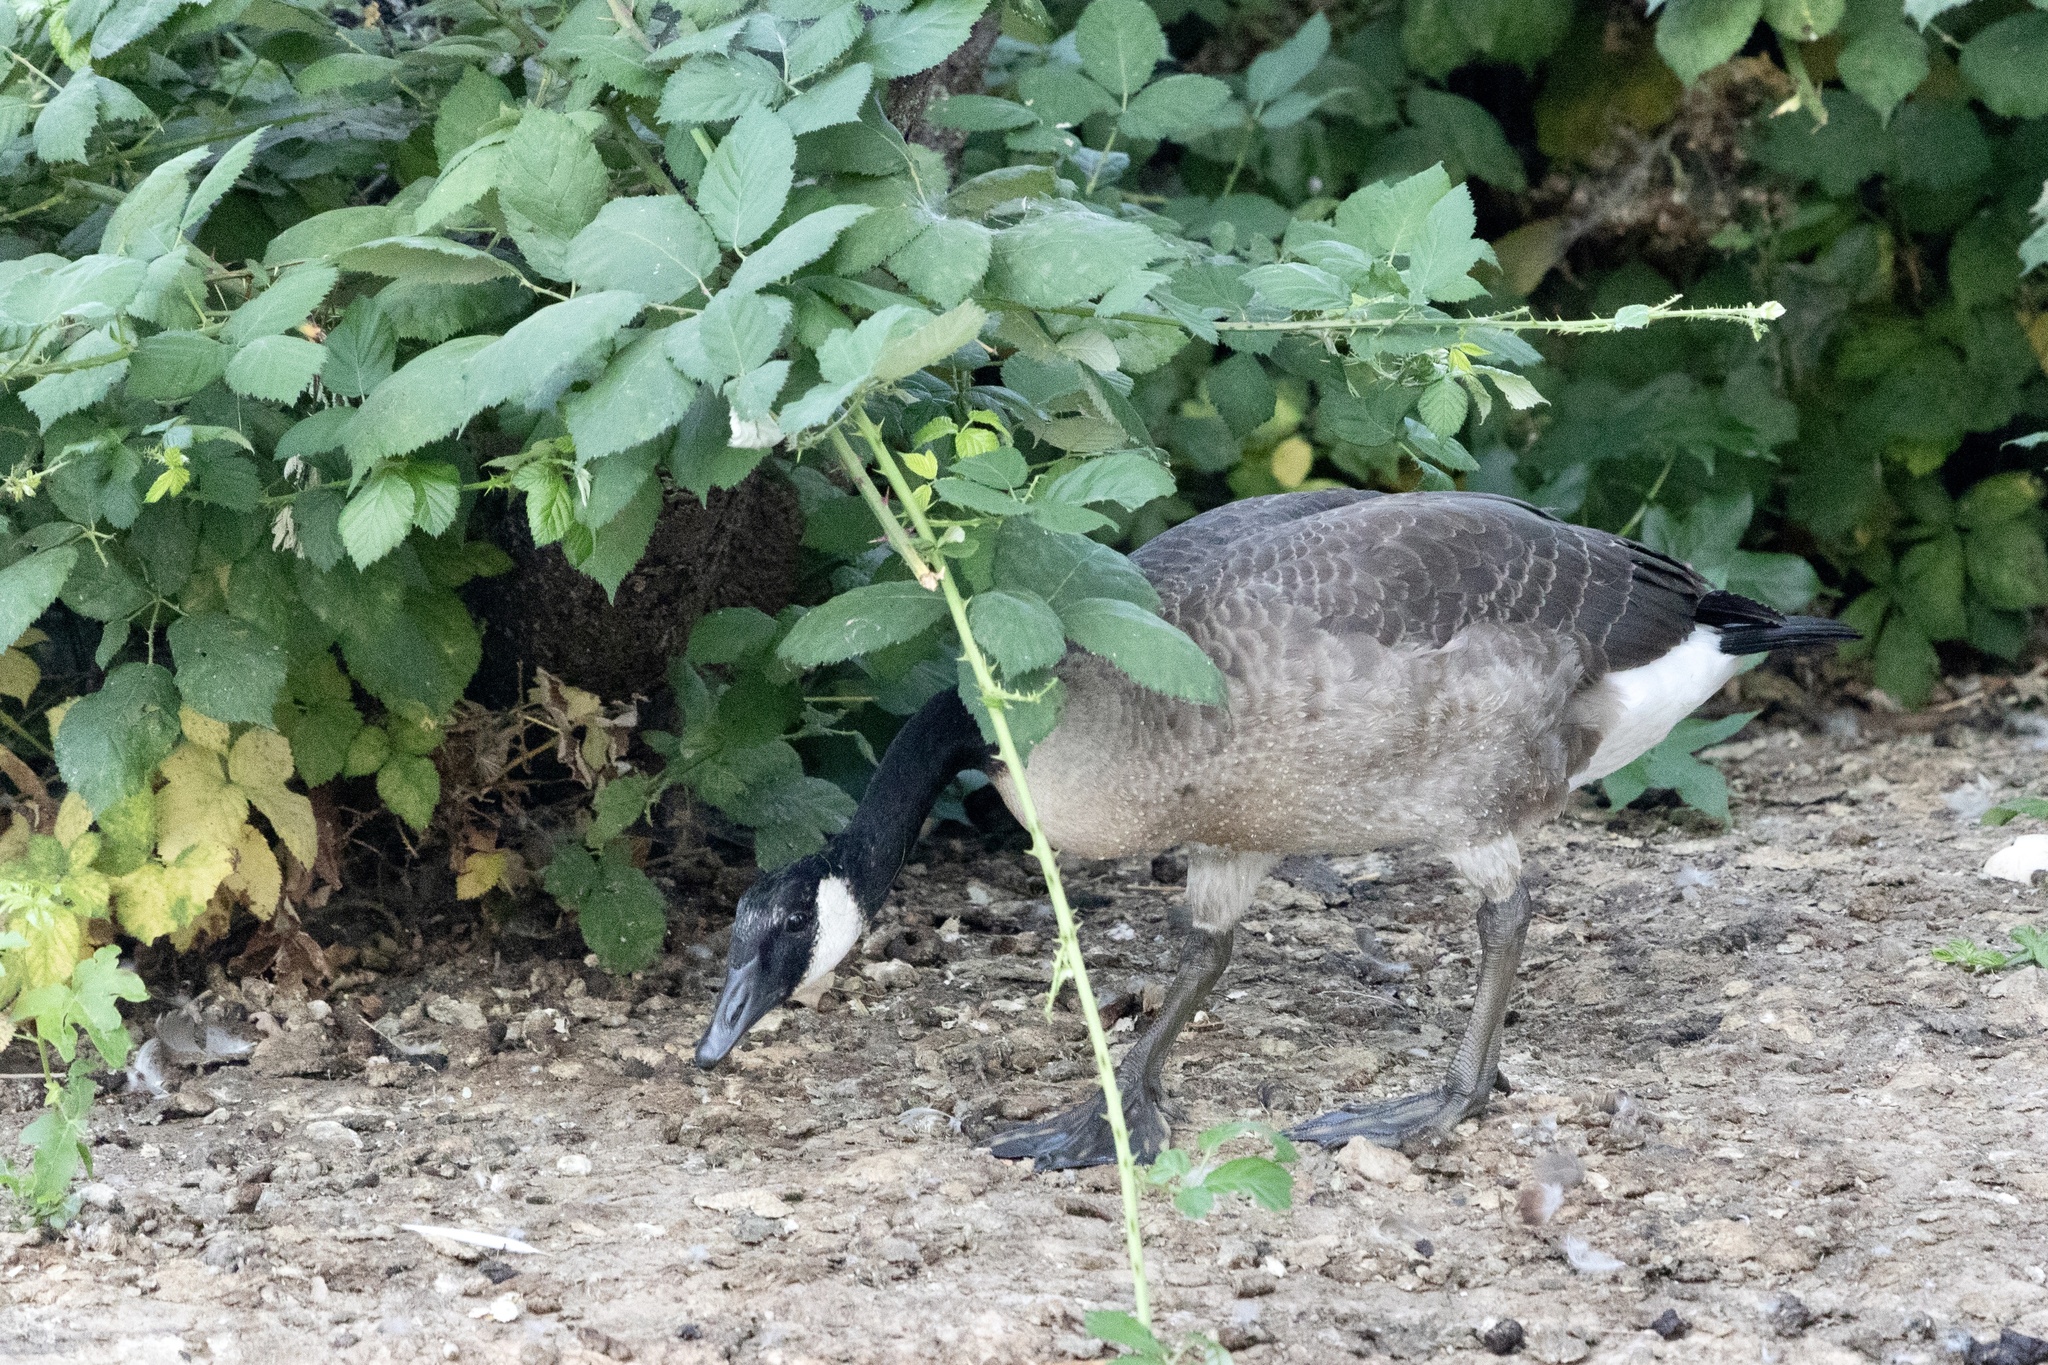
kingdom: Animalia
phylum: Chordata
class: Aves
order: Anseriformes
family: Anatidae
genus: Branta
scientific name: Branta canadensis
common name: Canada goose
